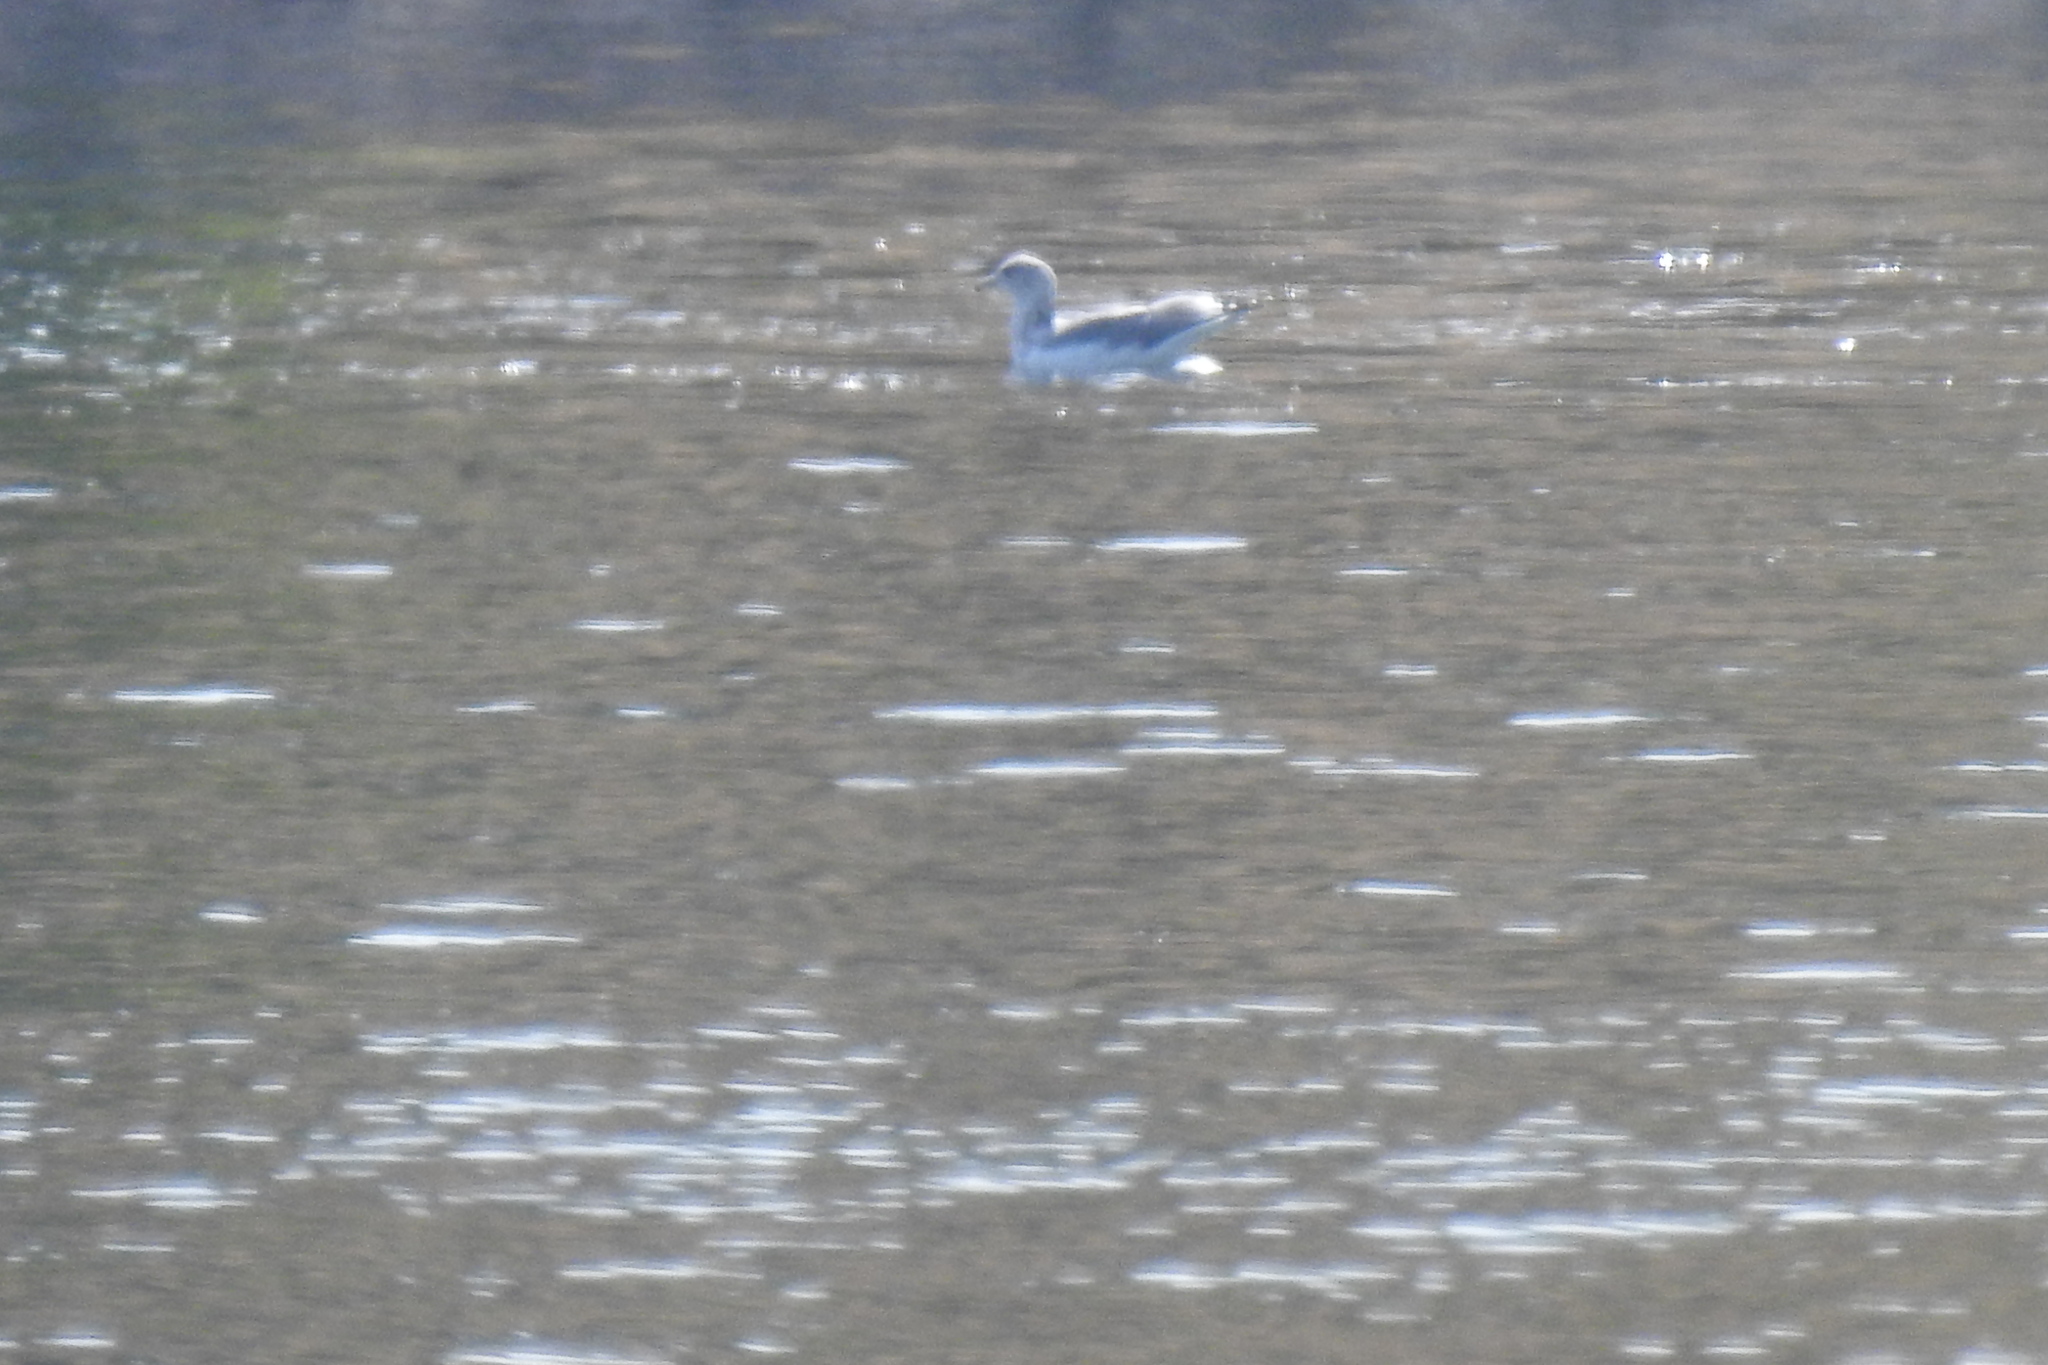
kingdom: Animalia
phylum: Chordata
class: Aves
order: Charadriiformes
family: Laridae
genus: Larus
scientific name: Larus californicus
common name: California gull
